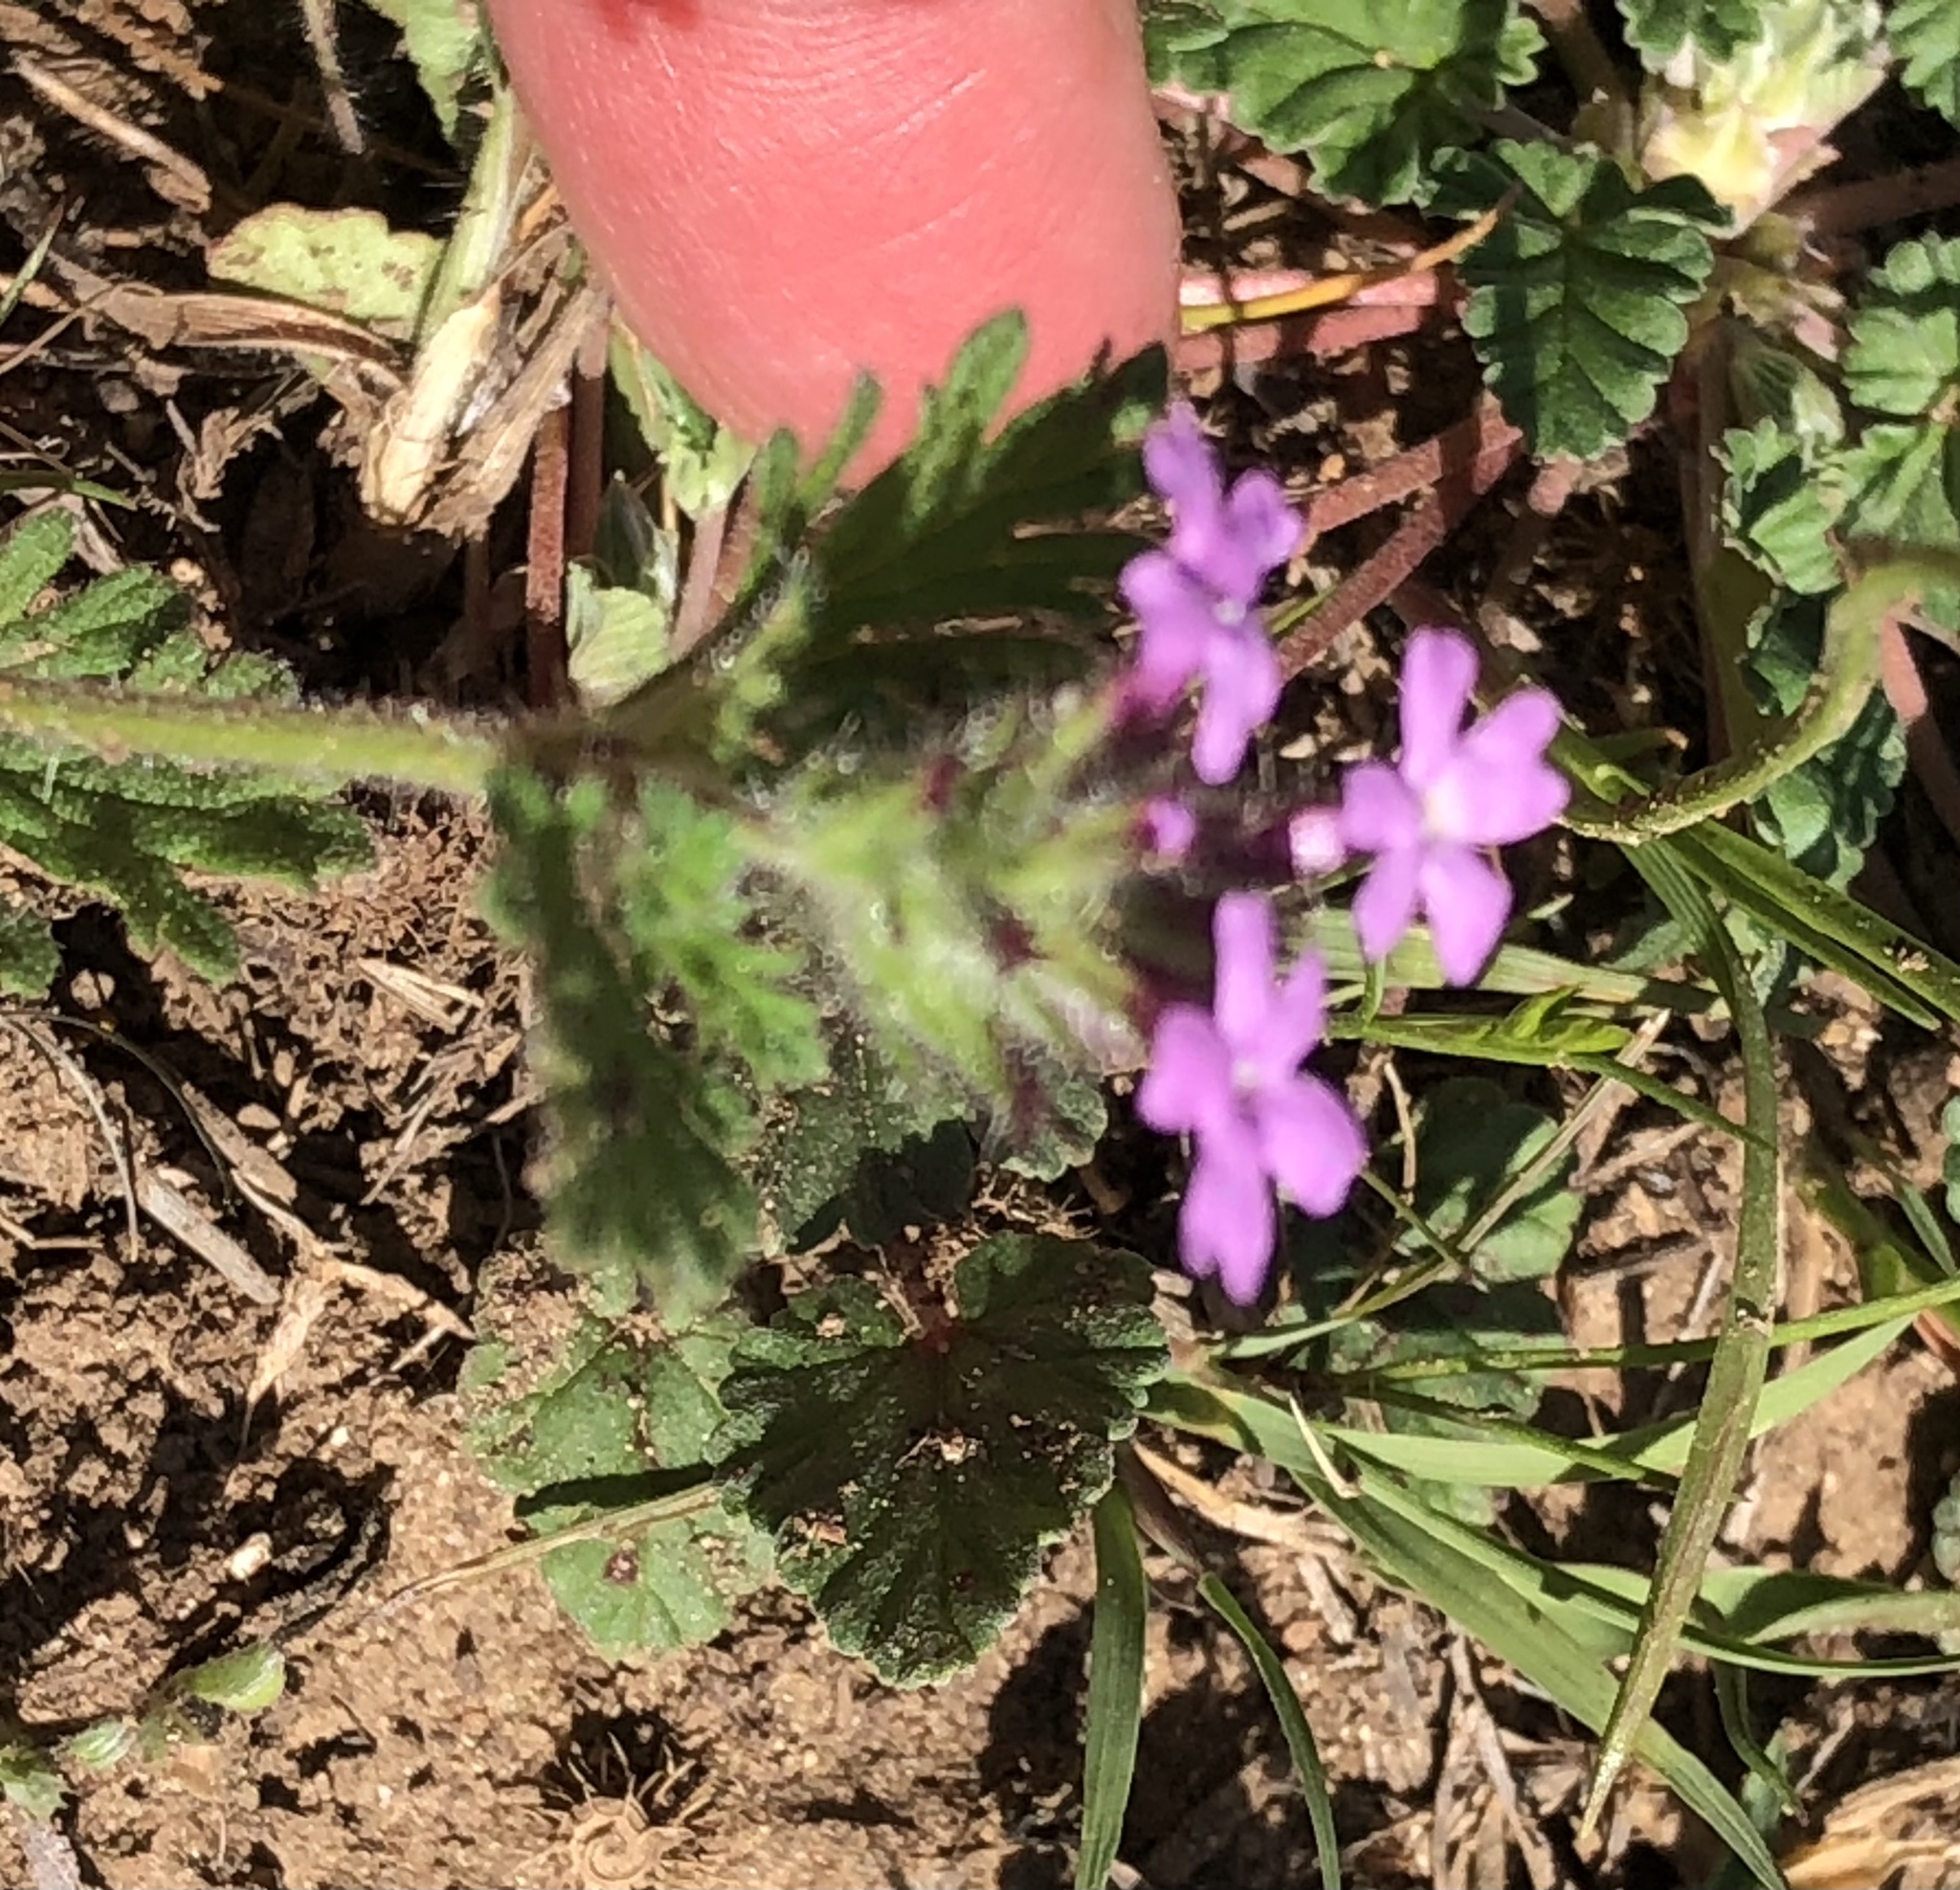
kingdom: Plantae
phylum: Tracheophyta
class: Magnoliopsida
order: Lamiales
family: Verbenaceae
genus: Verbena
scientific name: Verbena pumila
